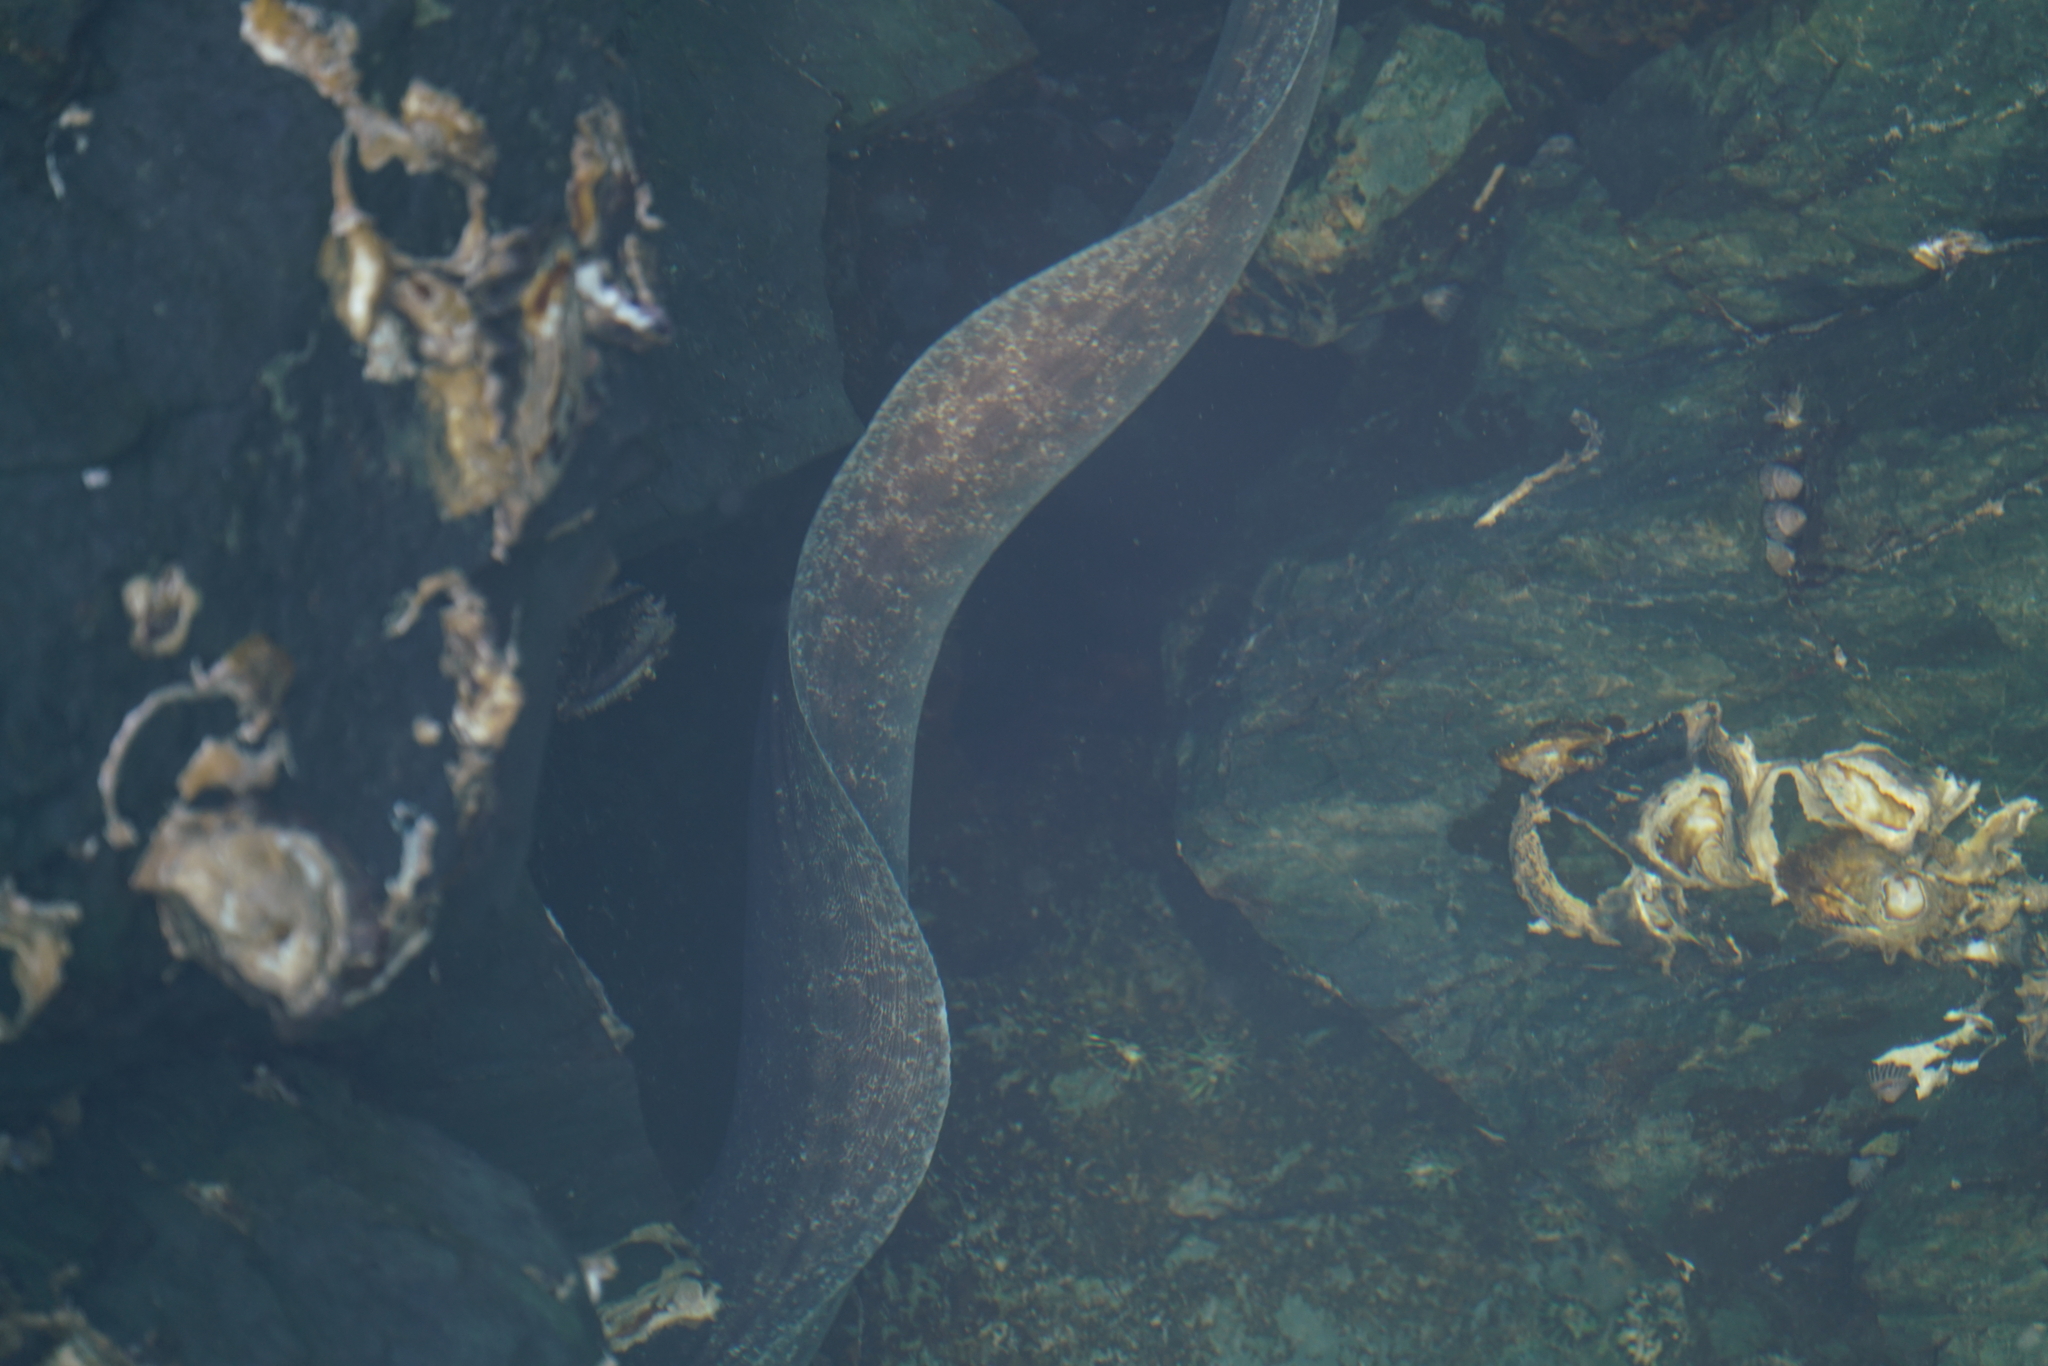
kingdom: Animalia
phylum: Chordata
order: Anguilliformes
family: Muraenidae
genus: Gymnothorax
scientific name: Gymnothorax pseudothyrsoideus
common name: Highfin moray
